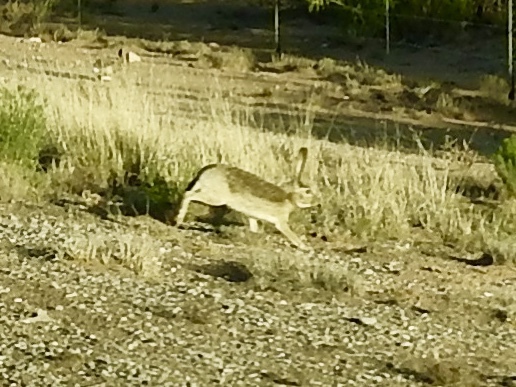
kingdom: Animalia
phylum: Chordata
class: Mammalia
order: Lagomorpha
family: Leporidae
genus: Lepus
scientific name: Lepus californicus
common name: Black-tailed jackrabbit
